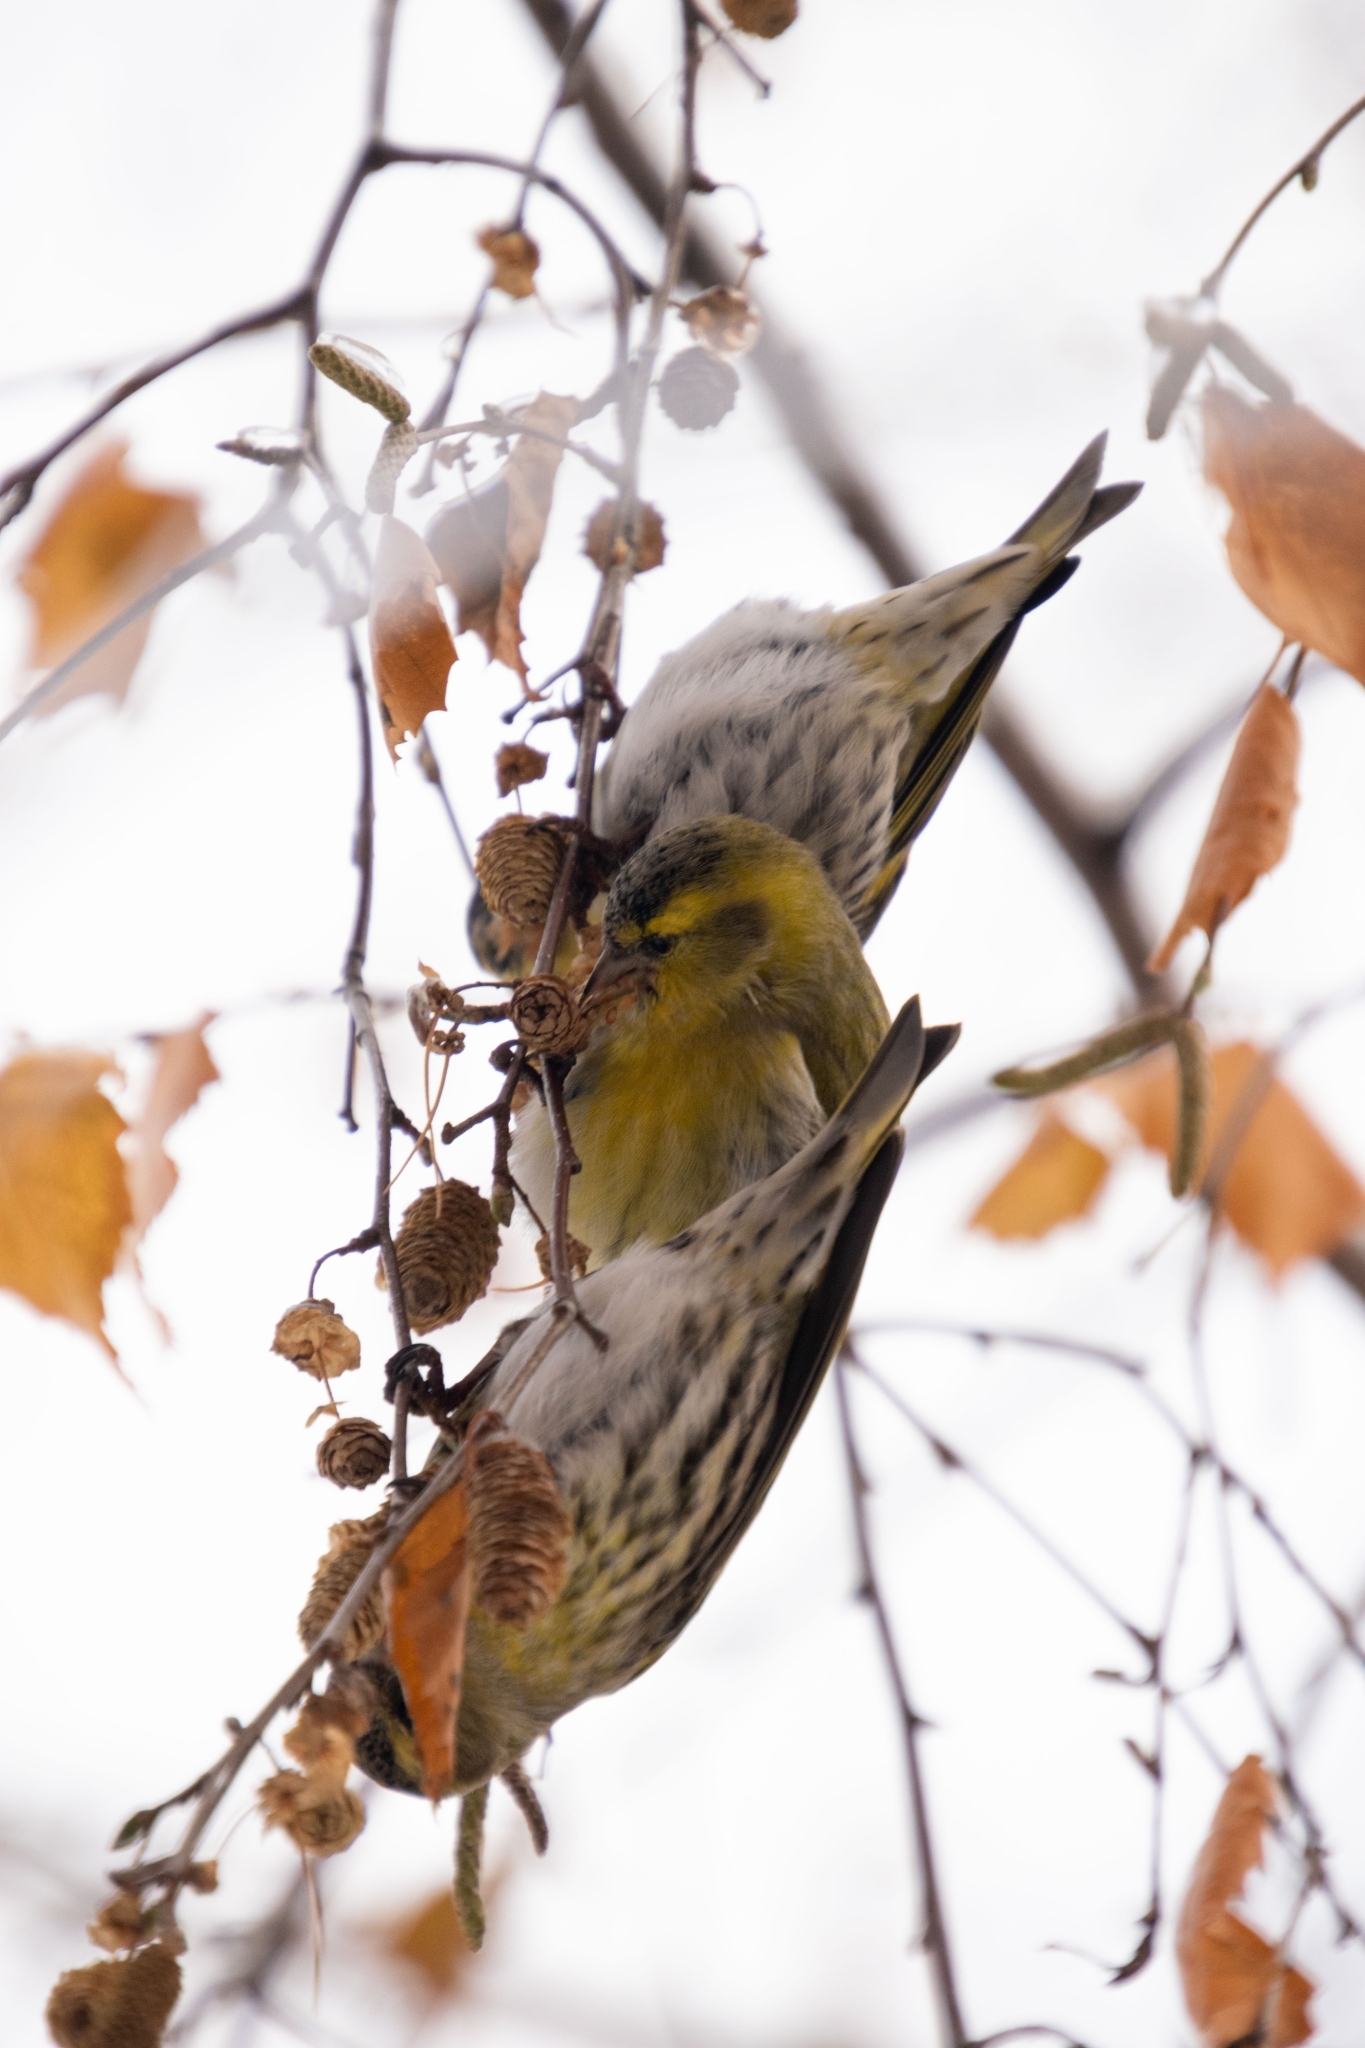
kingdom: Animalia
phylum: Chordata
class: Aves
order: Passeriformes
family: Fringillidae
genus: Spinus
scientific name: Spinus spinus
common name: Eurasian siskin
